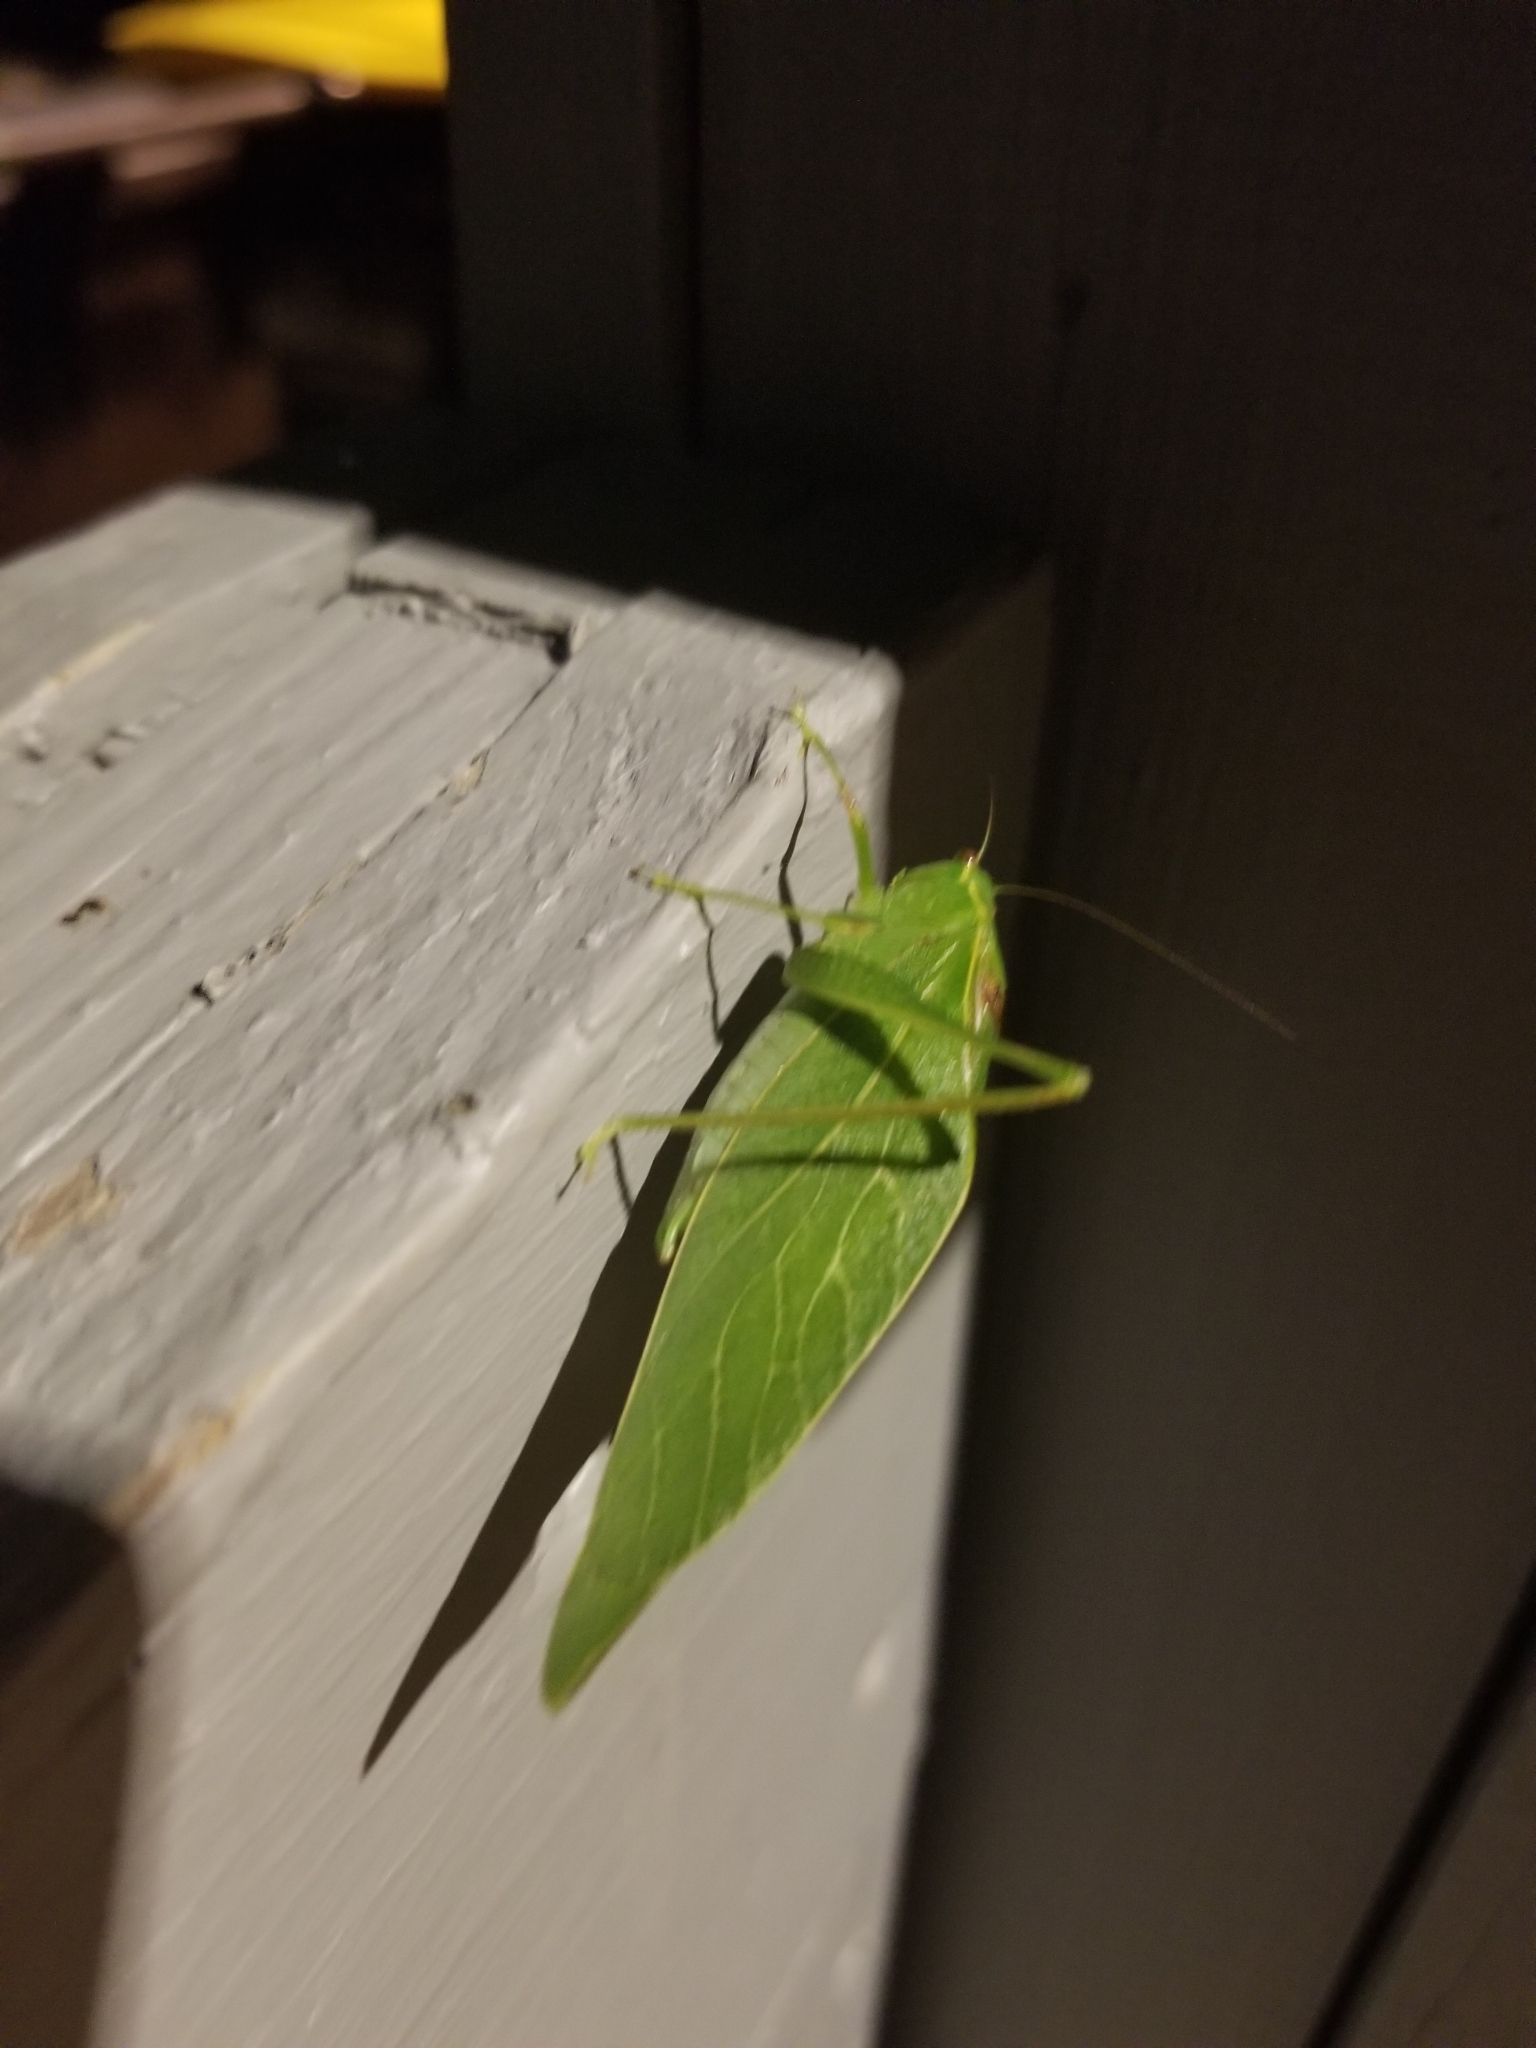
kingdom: Animalia
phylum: Arthropoda
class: Insecta
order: Orthoptera
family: Tettigoniidae
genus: Microcentrum
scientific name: Microcentrum retinerve
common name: Angular-winged katydid
